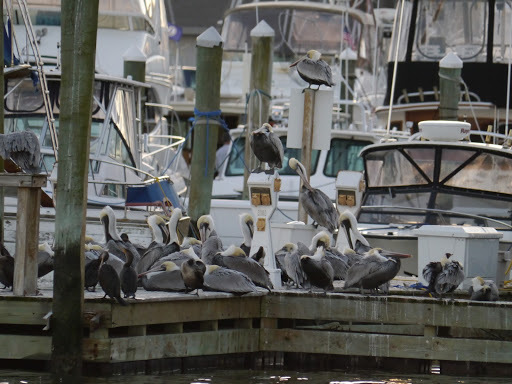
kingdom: Animalia
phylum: Chordata
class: Aves
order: Pelecaniformes
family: Pelecanidae
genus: Pelecanus
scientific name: Pelecanus occidentalis
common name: Brown pelican
